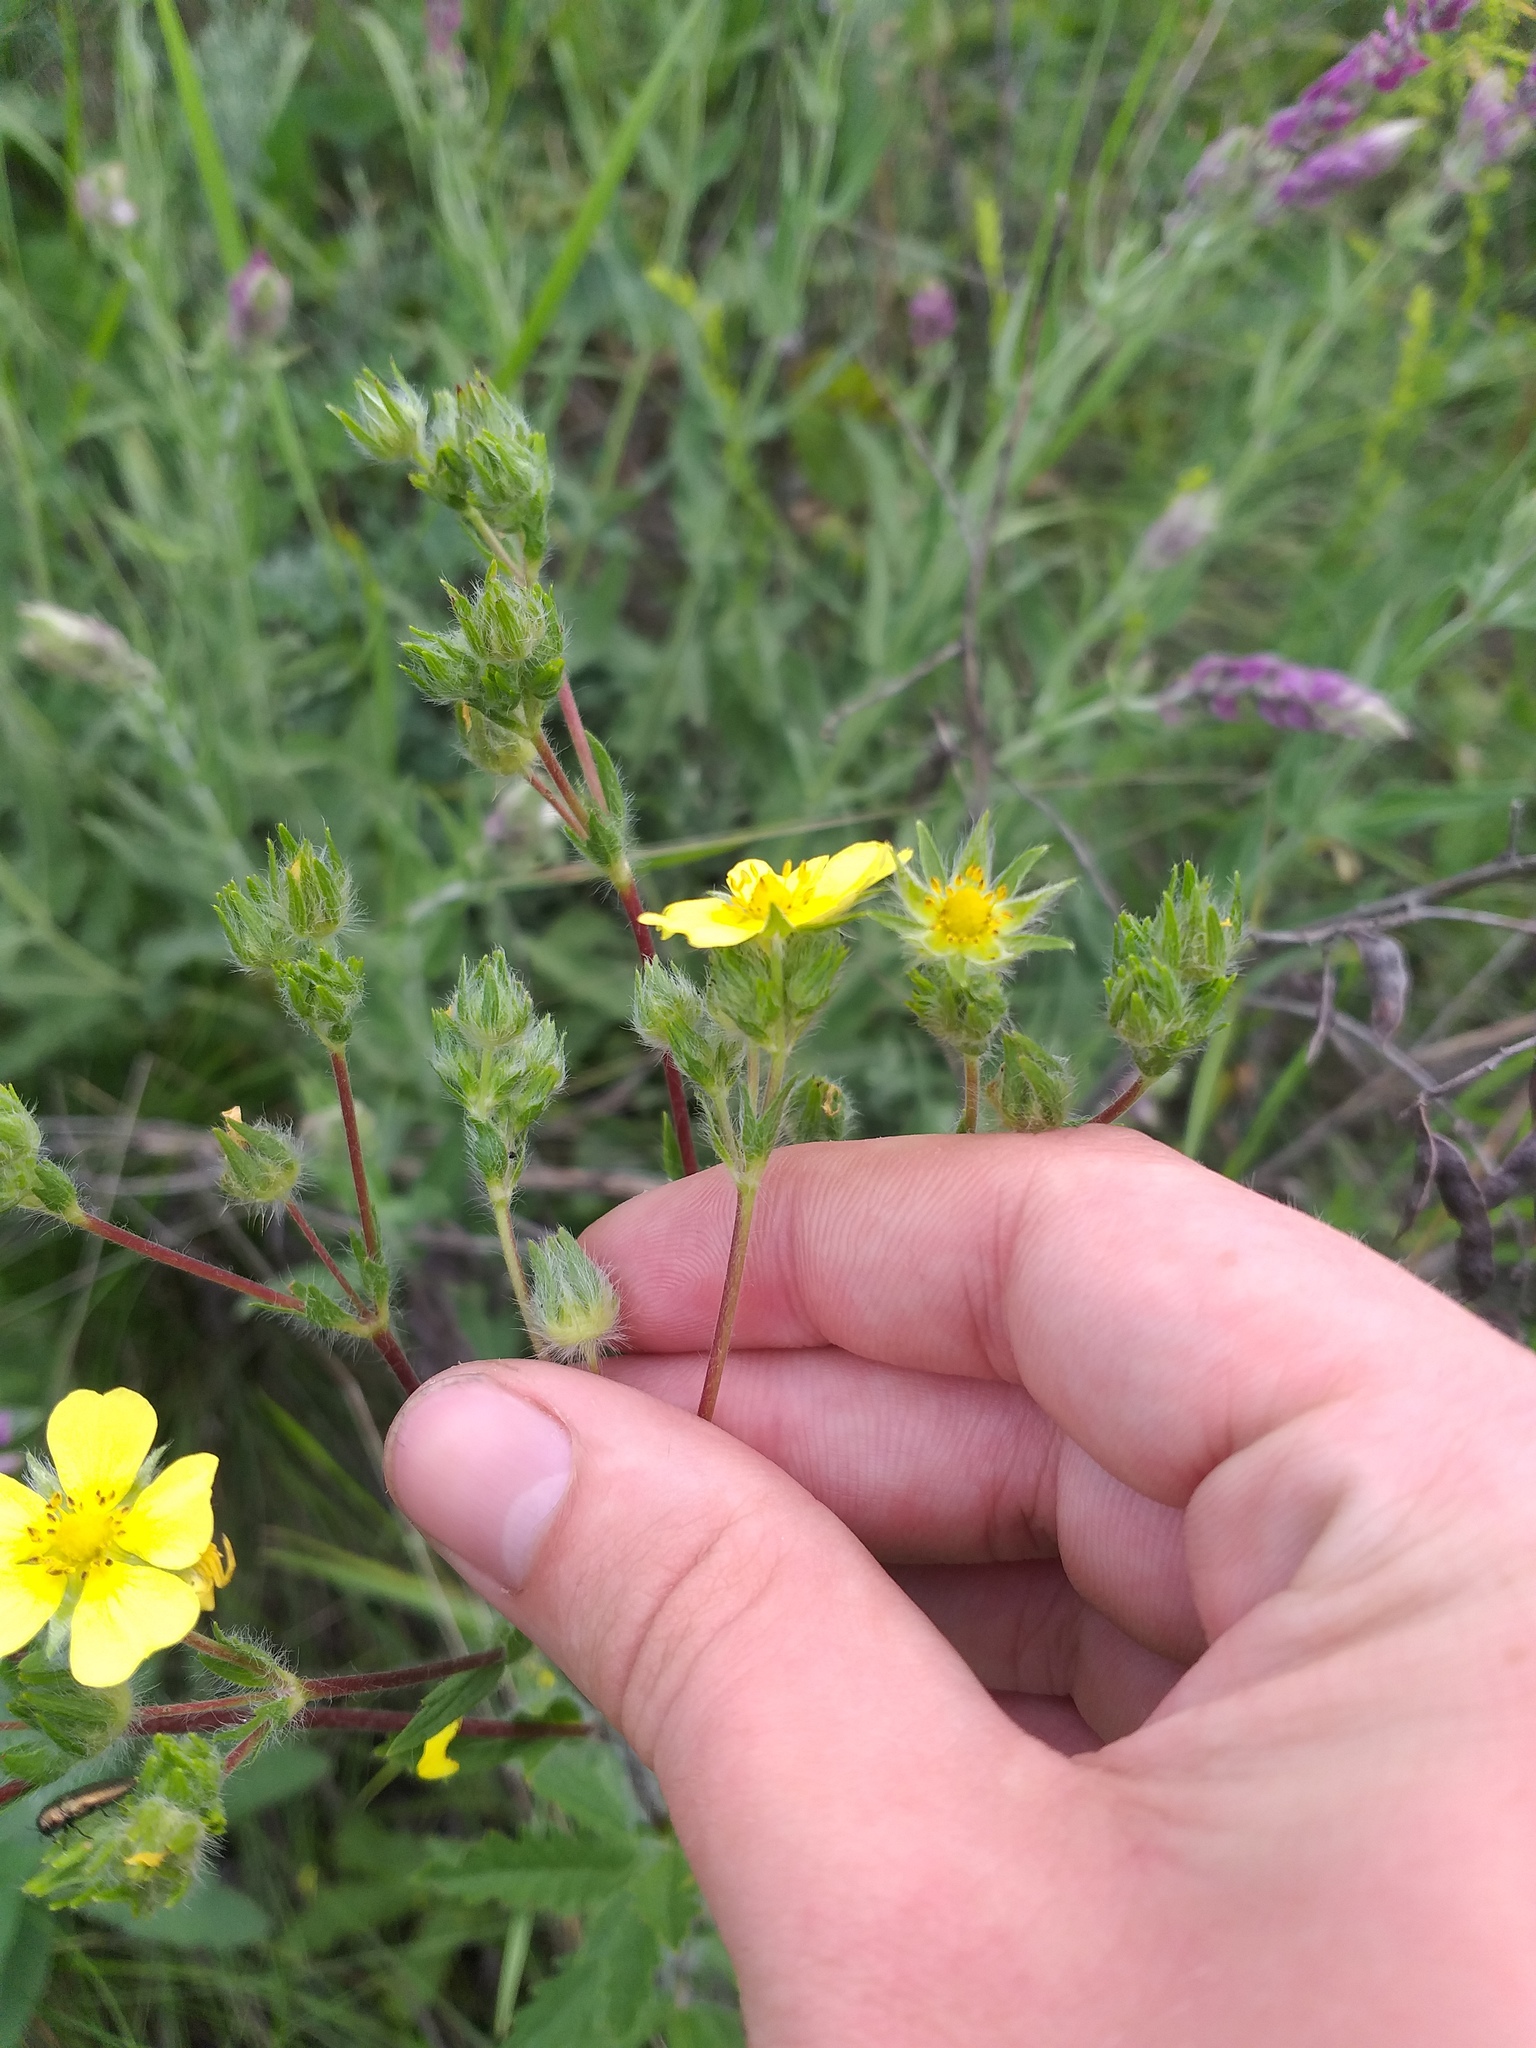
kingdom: Plantae
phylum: Tracheophyta
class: Magnoliopsida
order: Rosales
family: Rosaceae
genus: Potentilla
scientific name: Potentilla recta
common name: Sulphur cinquefoil
